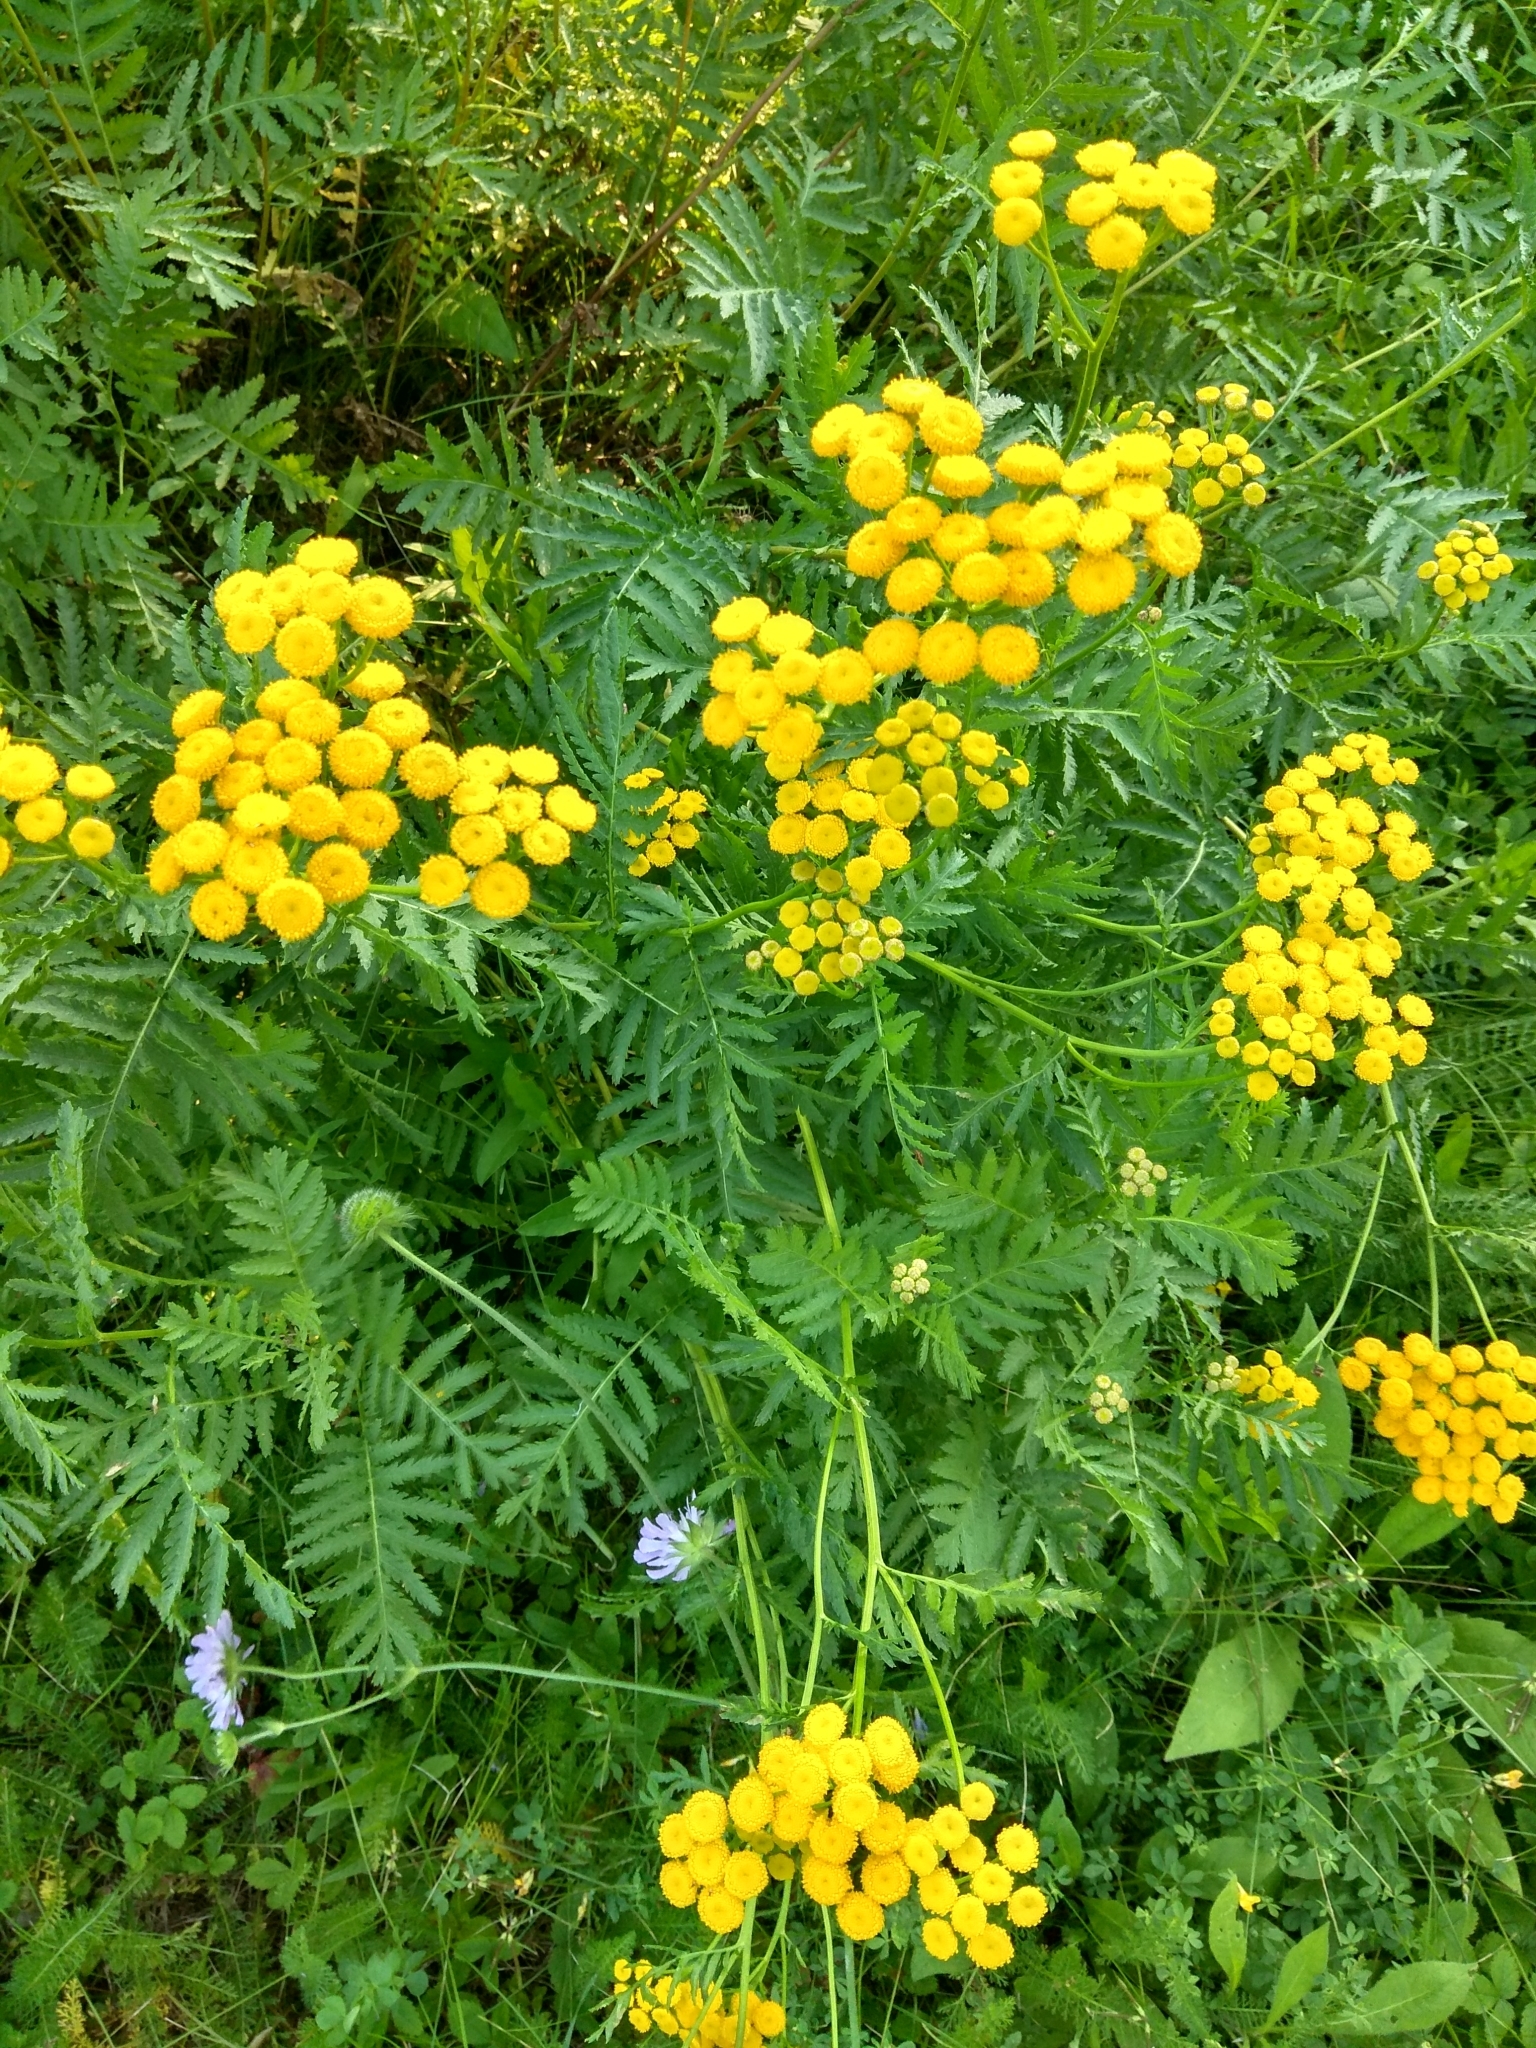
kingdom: Plantae
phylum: Tracheophyta
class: Magnoliopsida
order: Asterales
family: Asteraceae
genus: Tanacetum
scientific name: Tanacetum vulgare
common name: Common tansy
